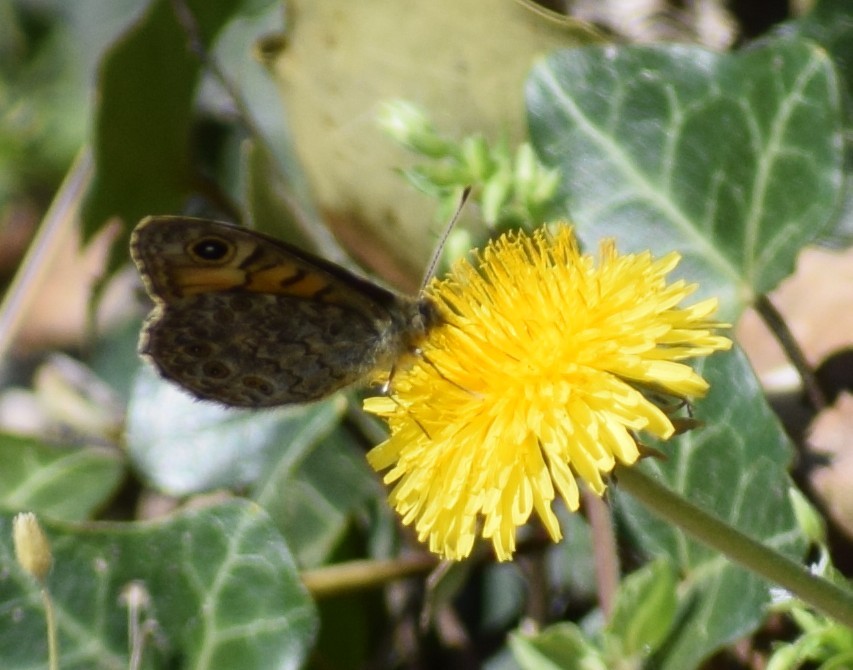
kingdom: Animalia
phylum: Arthropoda
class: Insecta
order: Lepidoptera
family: Nymphalidae
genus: Pararge
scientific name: Pararge Lasiommata megera
